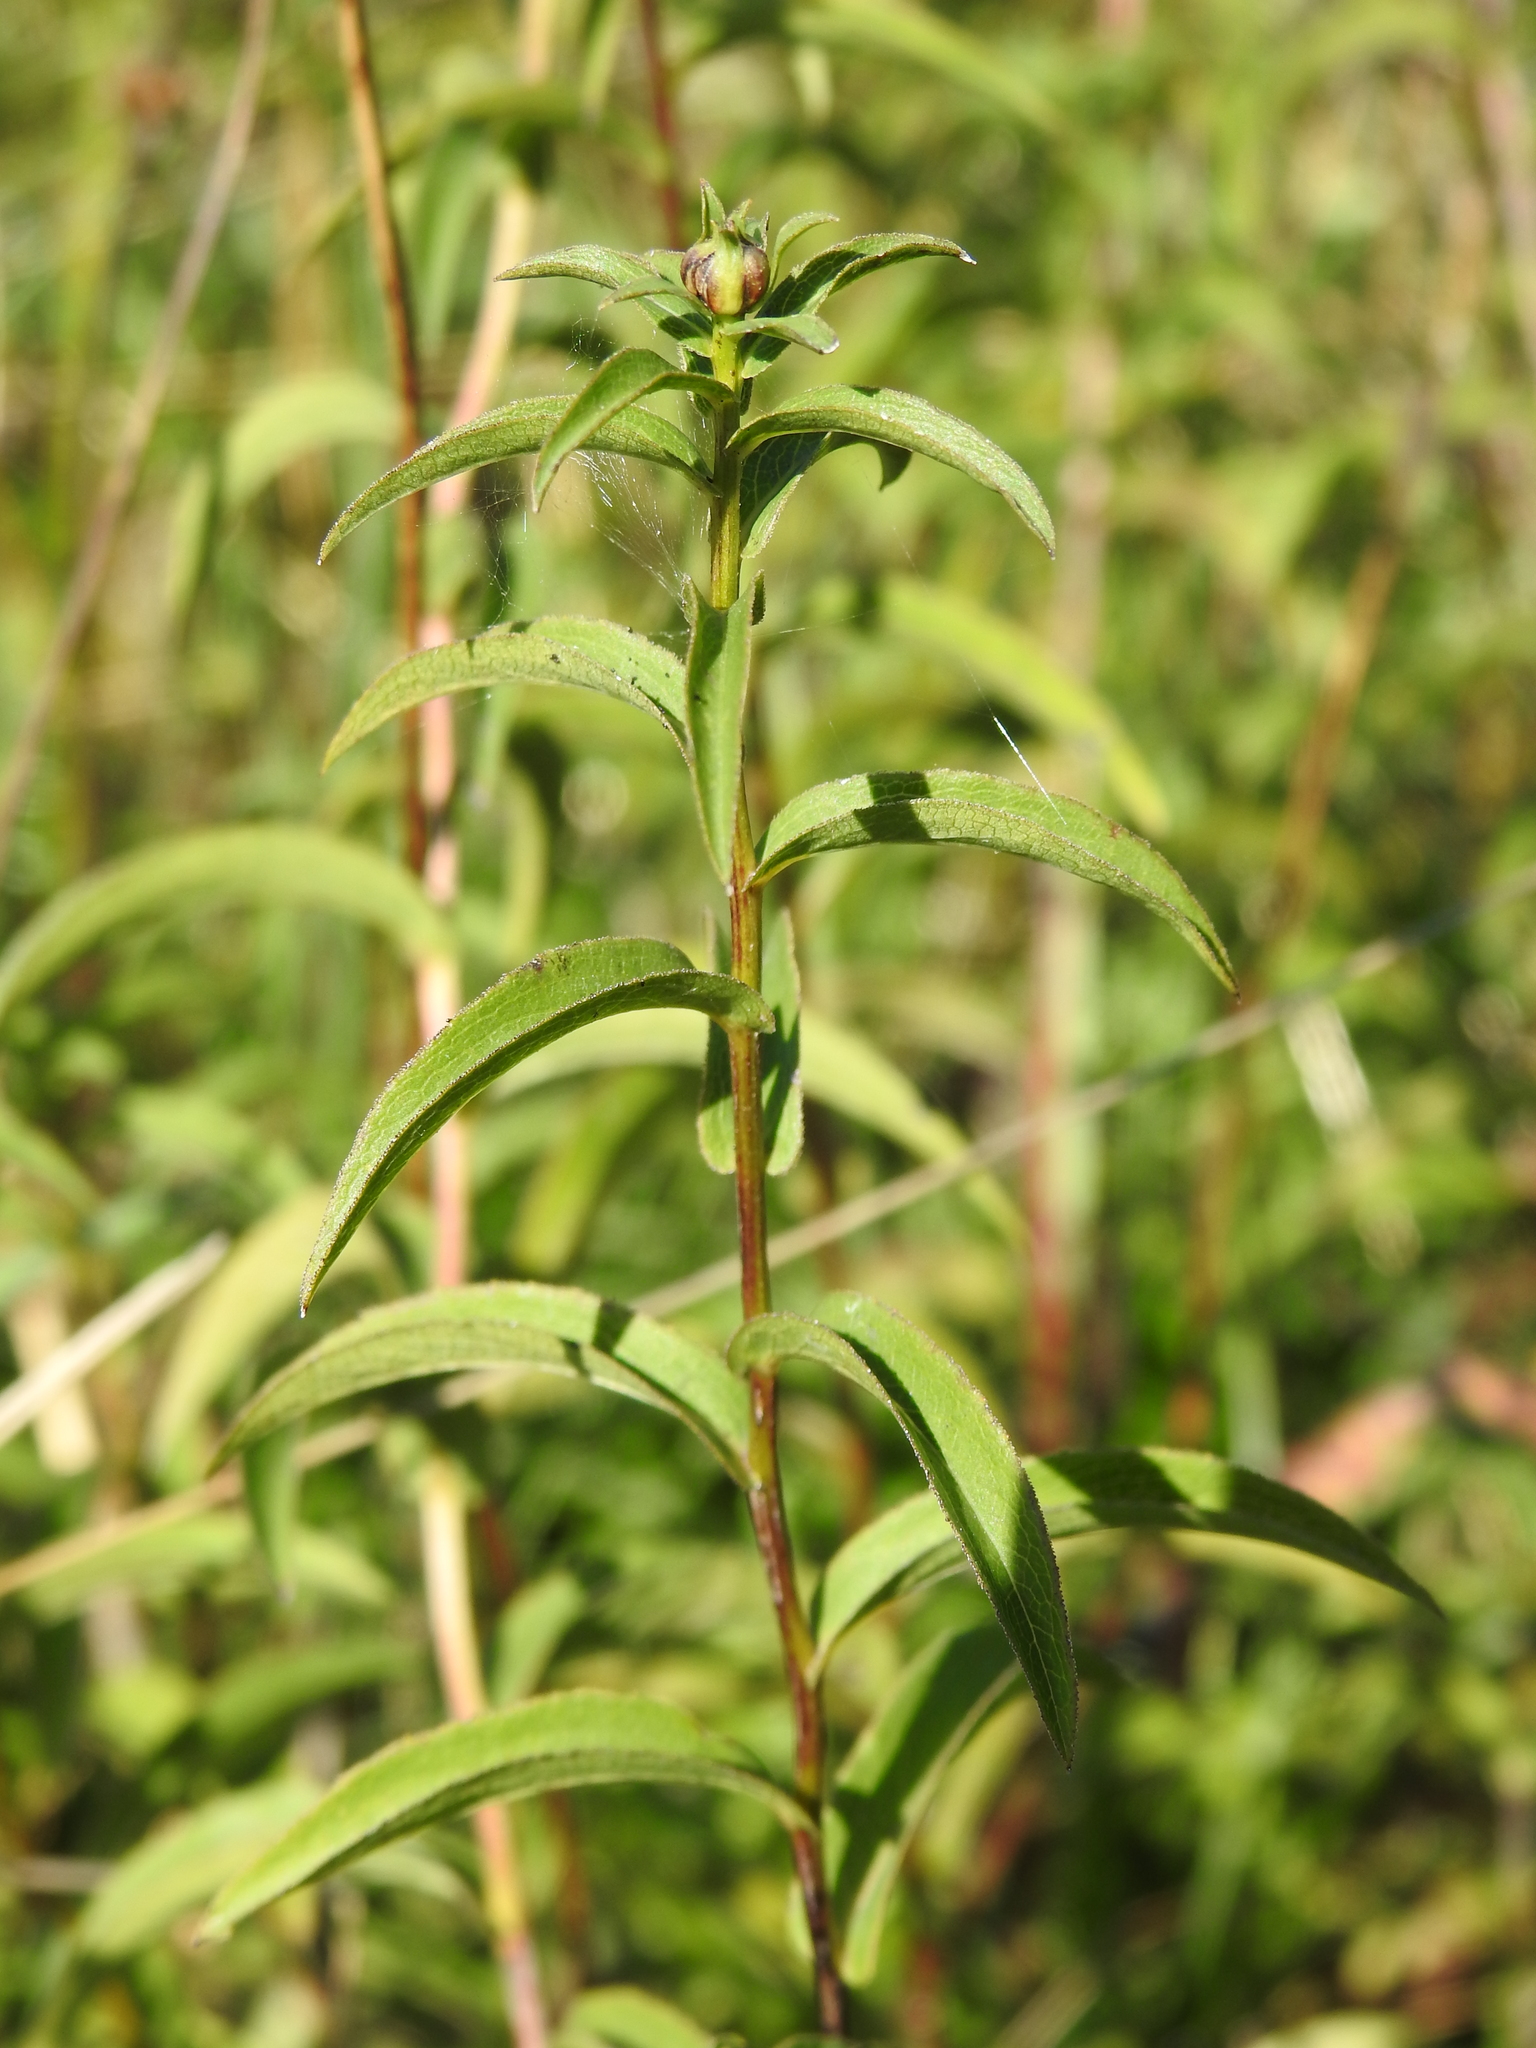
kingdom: Plantae
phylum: Tracheophyta
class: Magnoliopsida
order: Asterales
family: Asteraceae
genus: Pentanema
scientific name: Pentanema salicinum
